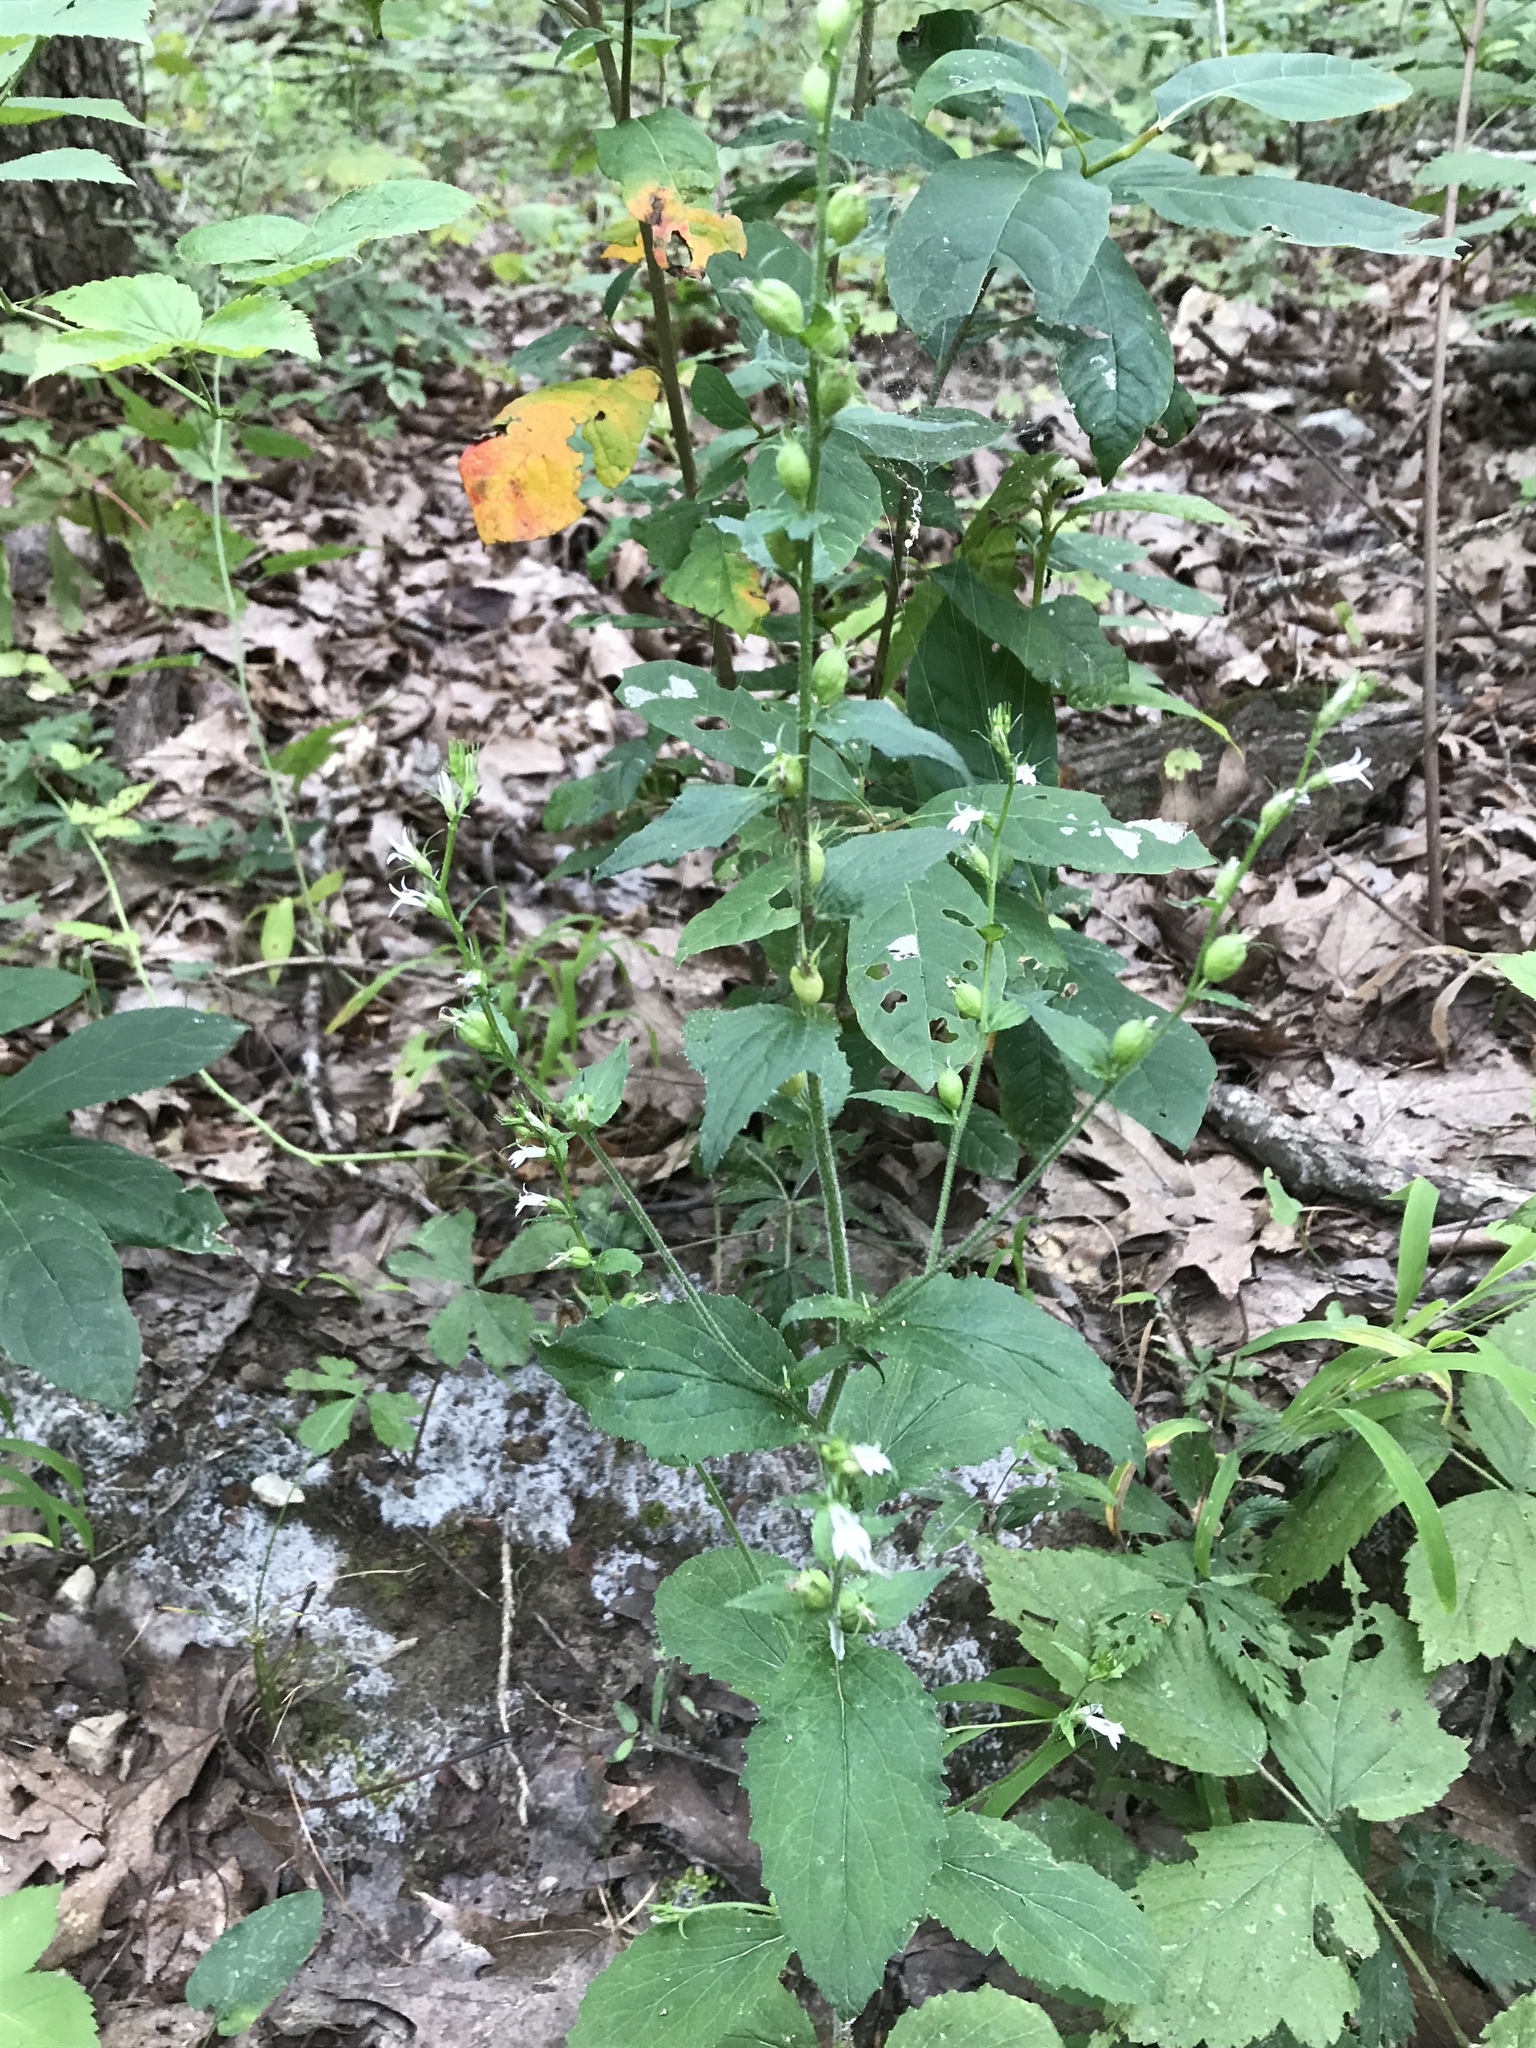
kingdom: Plantae
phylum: Tracheophyta
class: Magnoliopsida
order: Asterales
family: Campanulaceae
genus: Lobelia
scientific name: Lobelia inflata
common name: Indian tobacco
